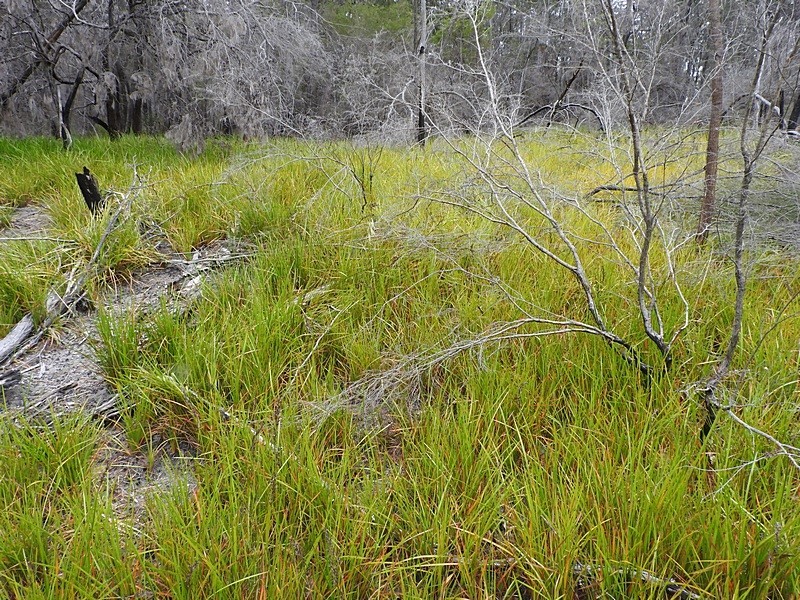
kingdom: Plantae
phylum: Tracheophyta
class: Liliopsida
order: Poales
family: Cyperaceae
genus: Lepidosperma
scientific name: Lepidosperma sieberi
